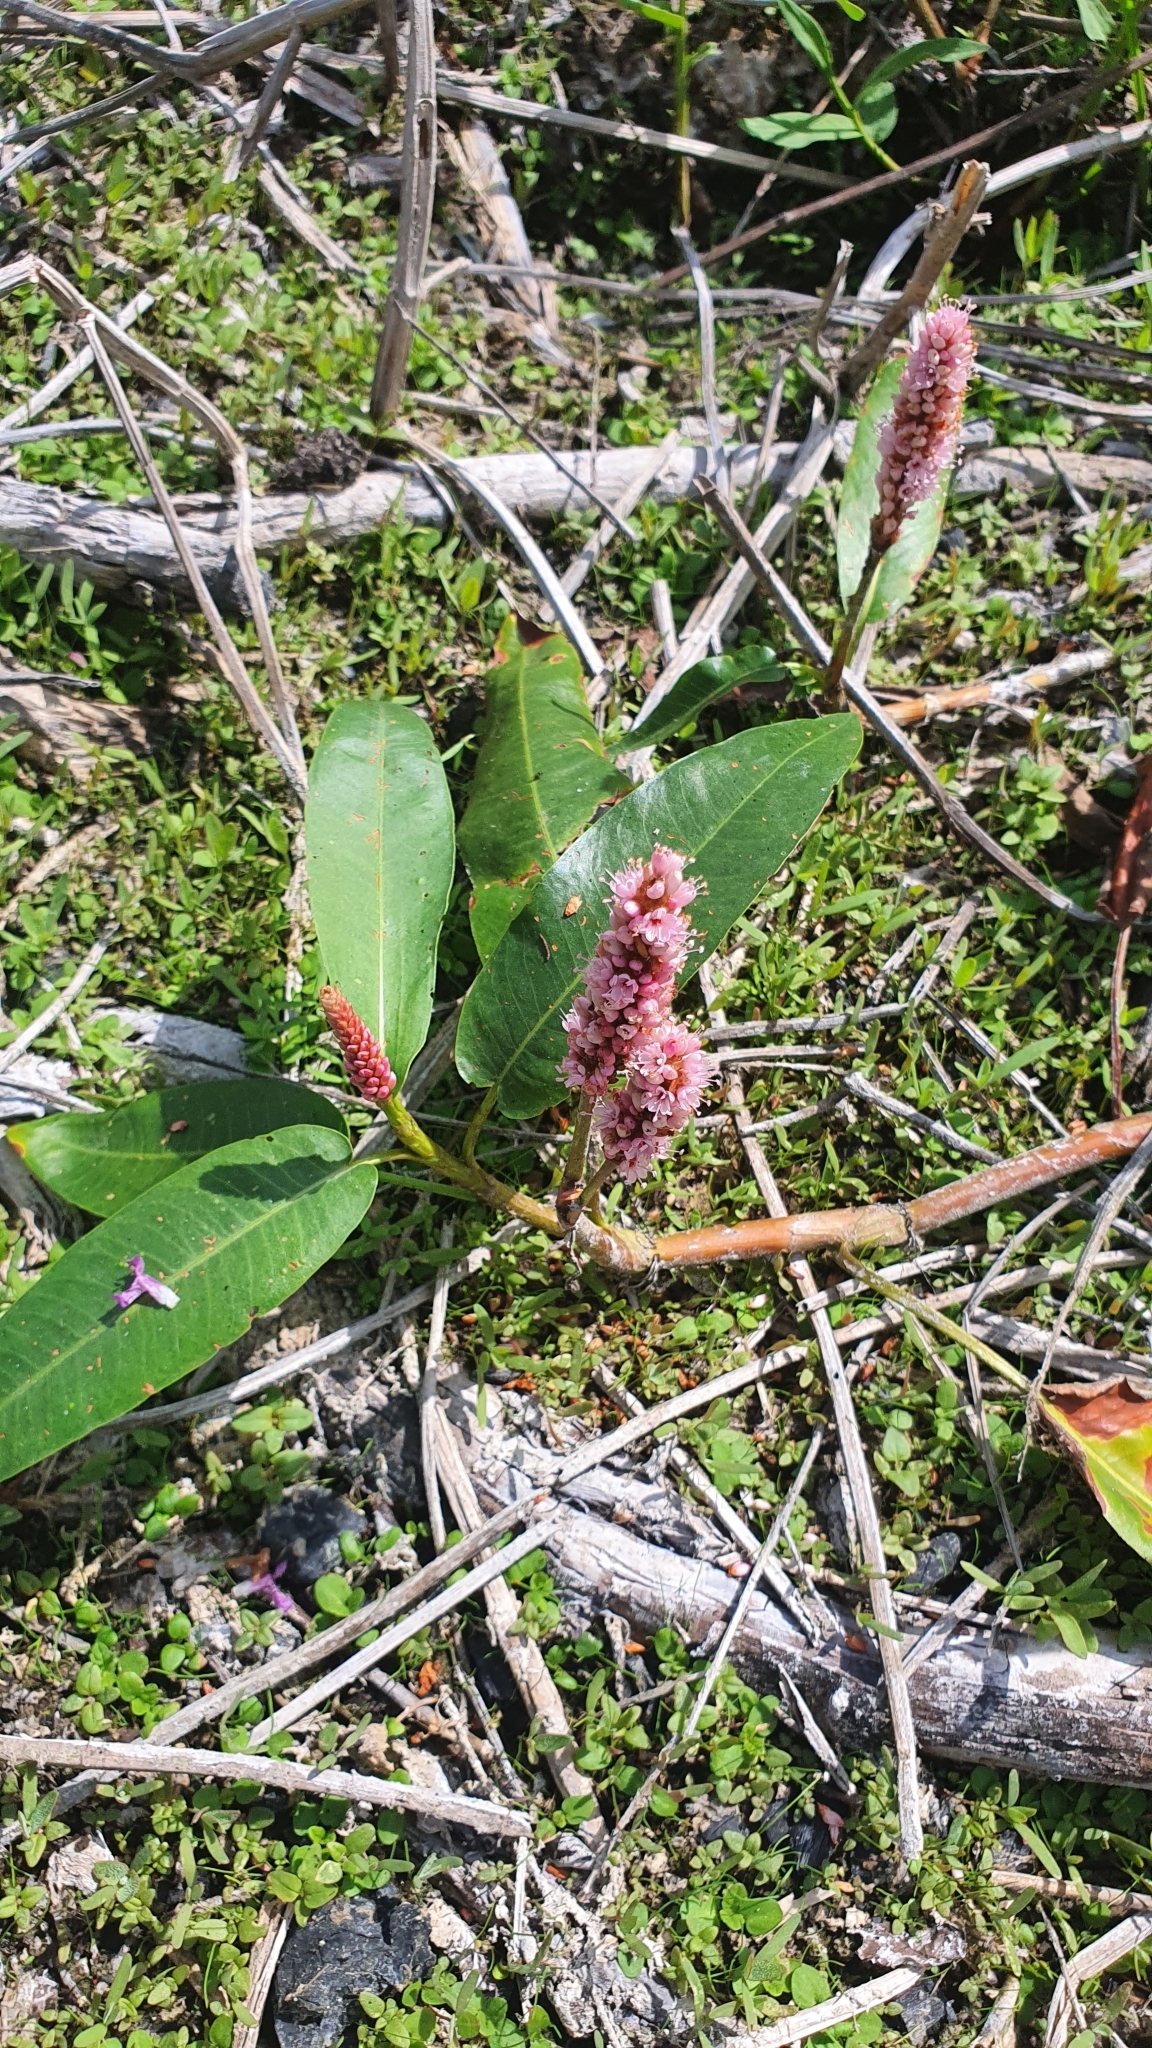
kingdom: Plantae
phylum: Tracheophyta
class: Magnoliopsida
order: Caryophyllales
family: Polygonaceae
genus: Persicaria
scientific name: Persicaria amphibia
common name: Amphibious bistort
